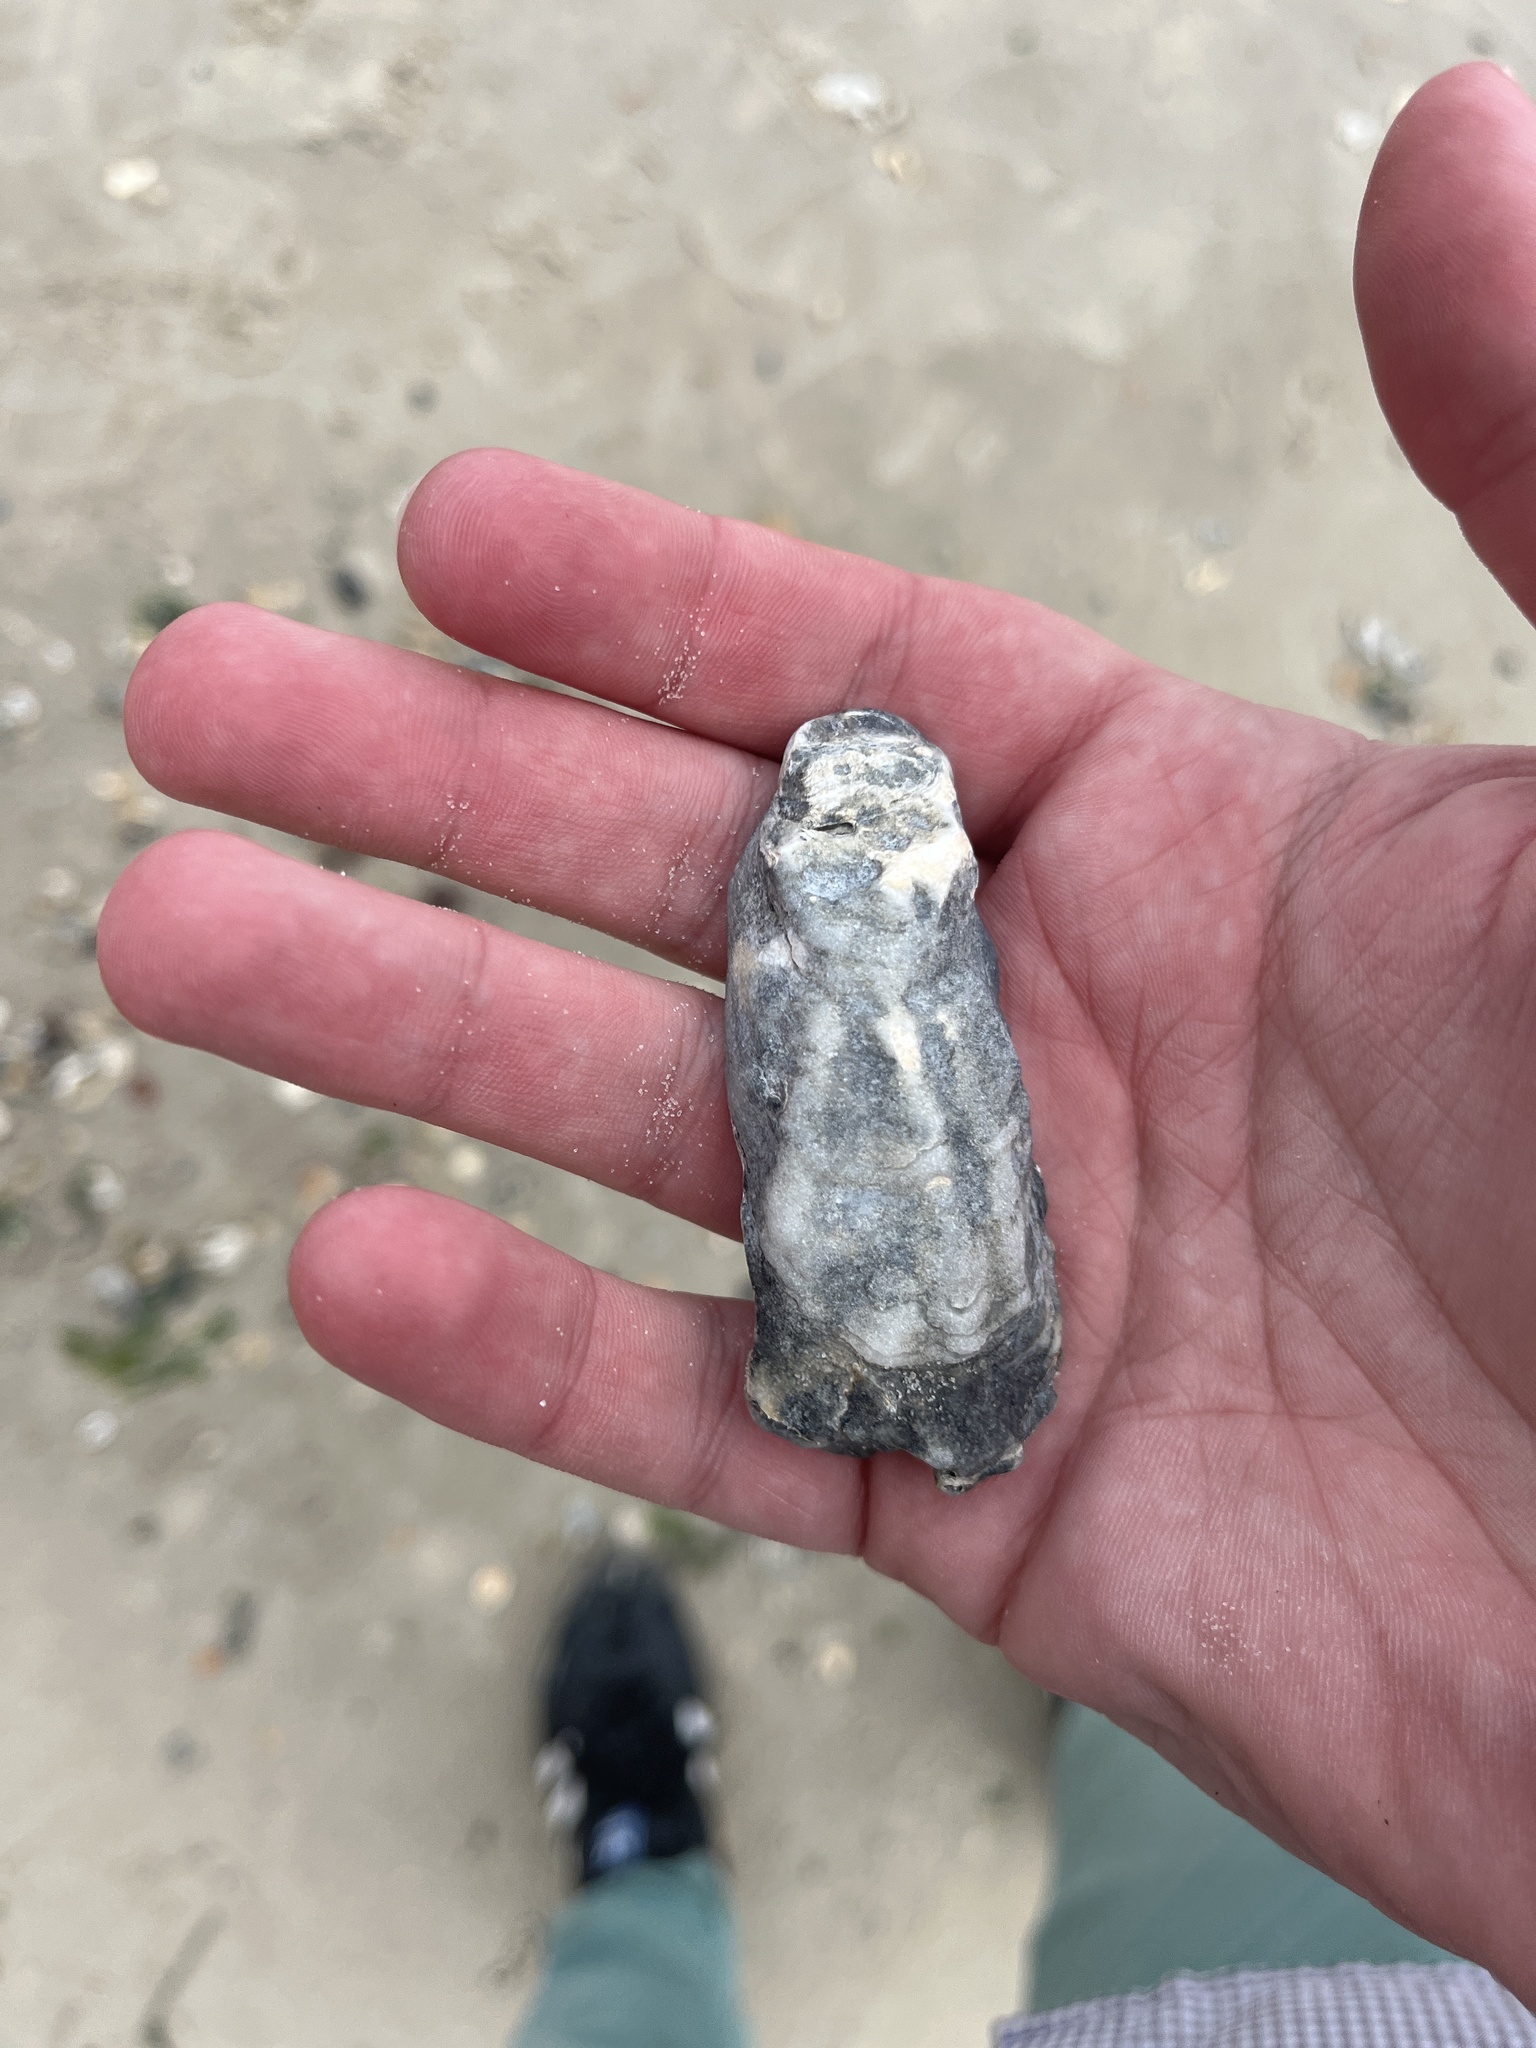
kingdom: Animalia
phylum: Mollusca
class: Bivalvia
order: Ostreida
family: Ostreidae
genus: Crassostrea
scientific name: Crassostrea virginica
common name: American oyster
